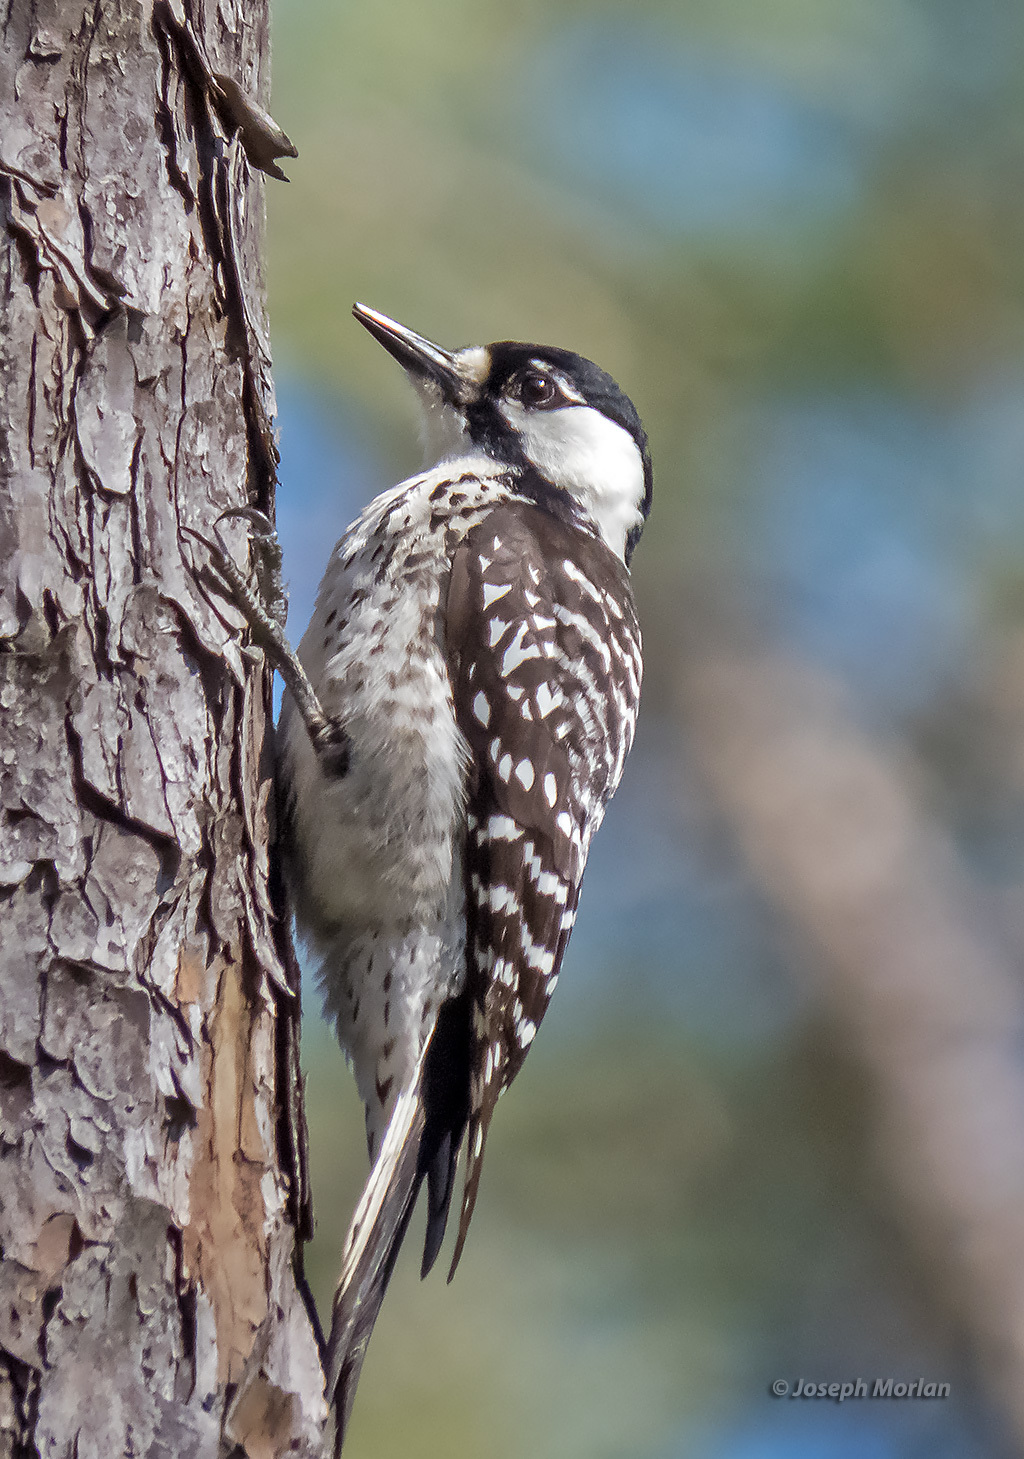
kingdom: Animalia
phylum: Chordata
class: Aves
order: Piciformes
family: Picidae
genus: Leuconotopicus
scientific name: Leuconotopicus borealis
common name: Red-cockaded woodpecker
